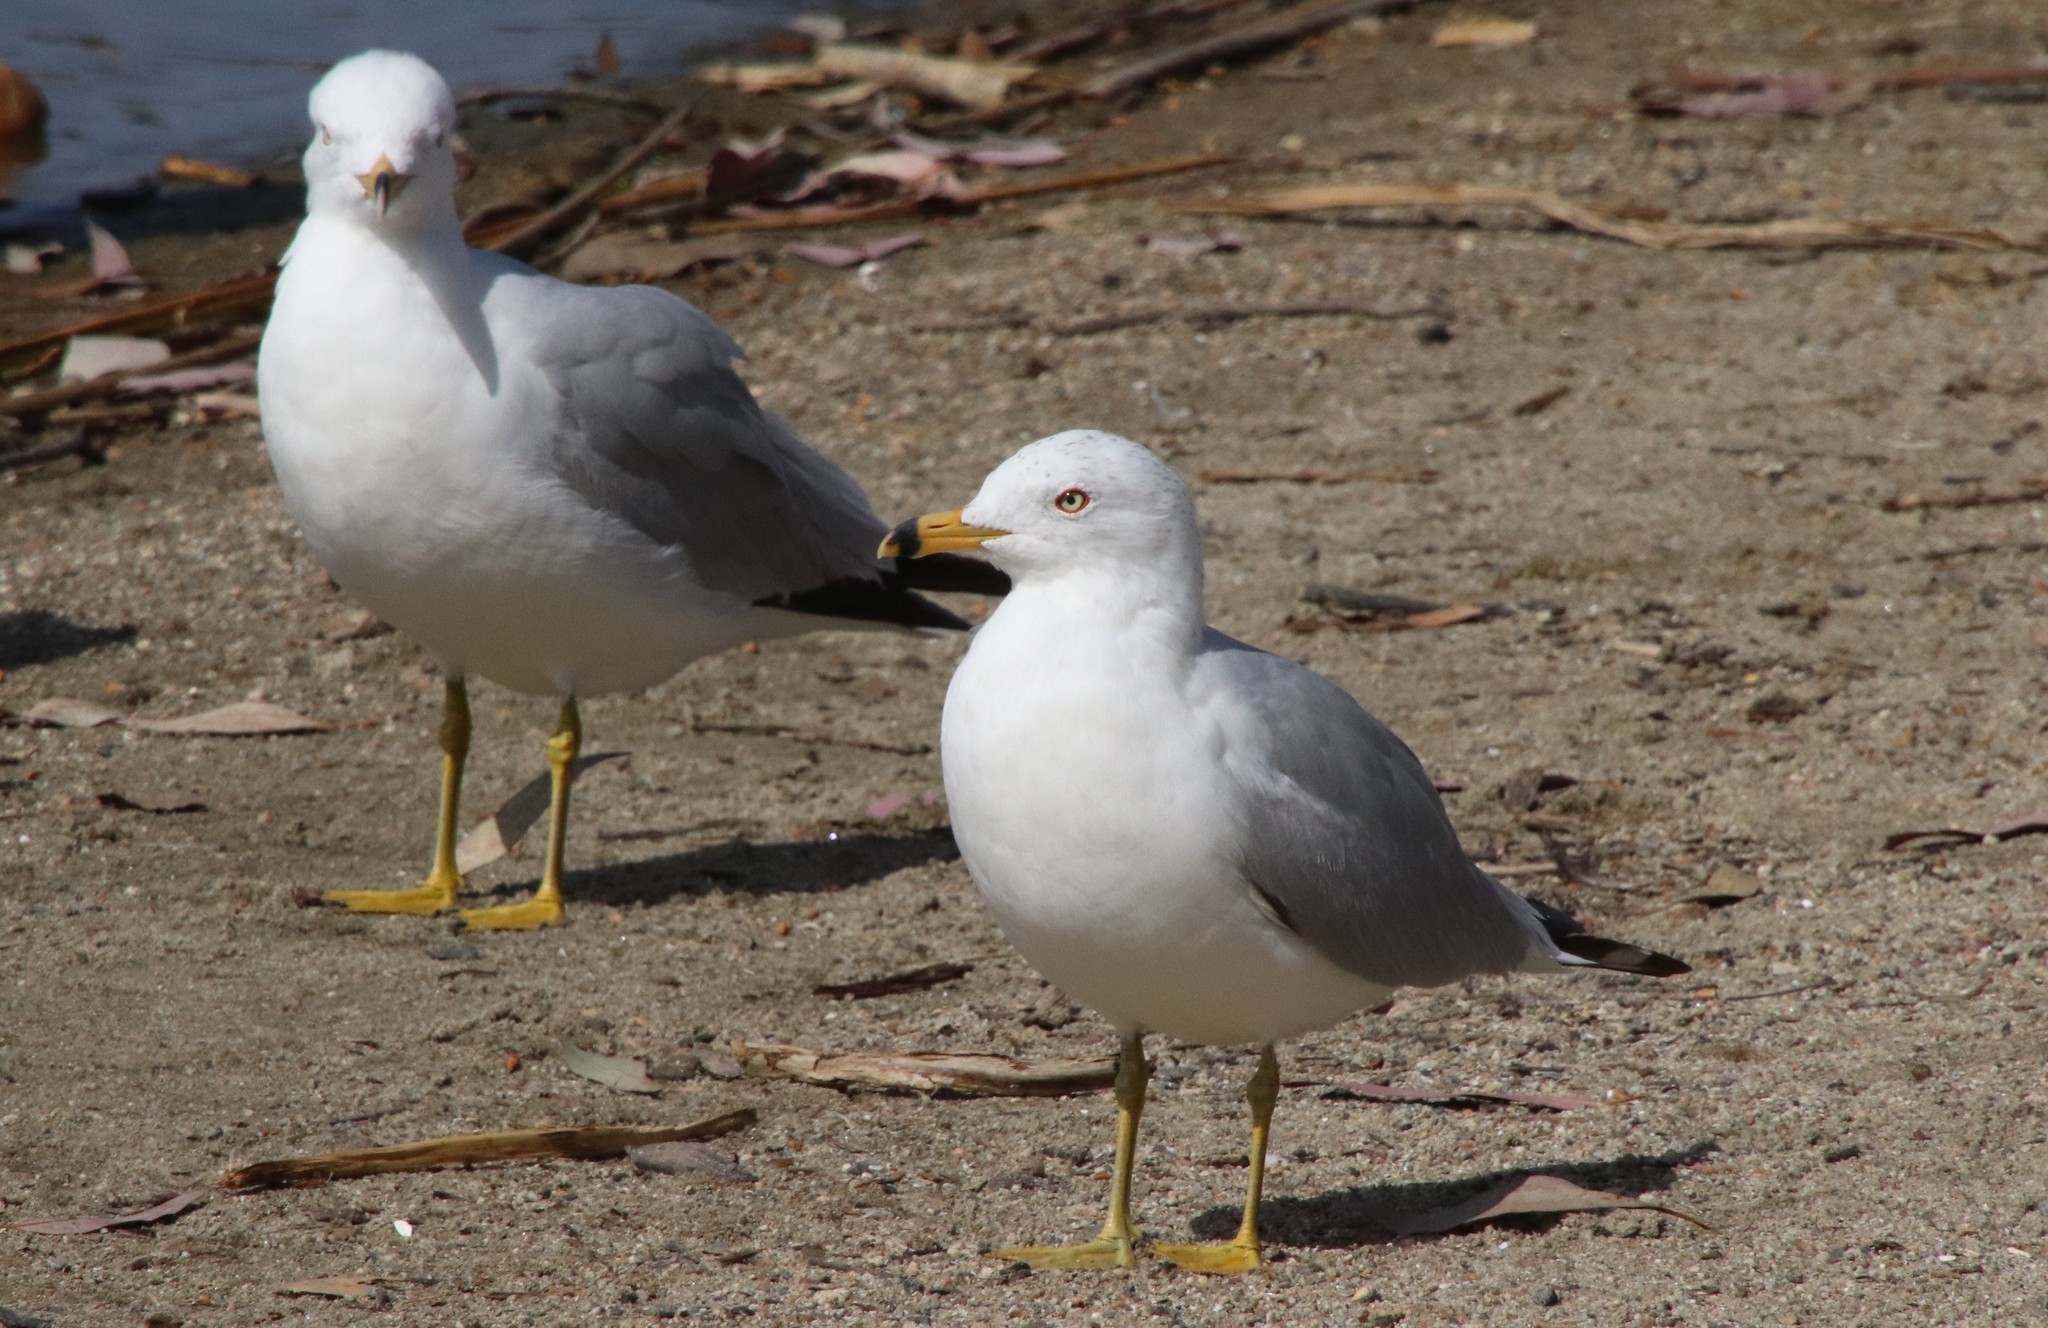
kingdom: Animalia
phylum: Chordata
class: Aves
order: Charadriiformes
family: Laridae
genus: Larus
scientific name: Larus delawarensis
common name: Ring-billed gull
